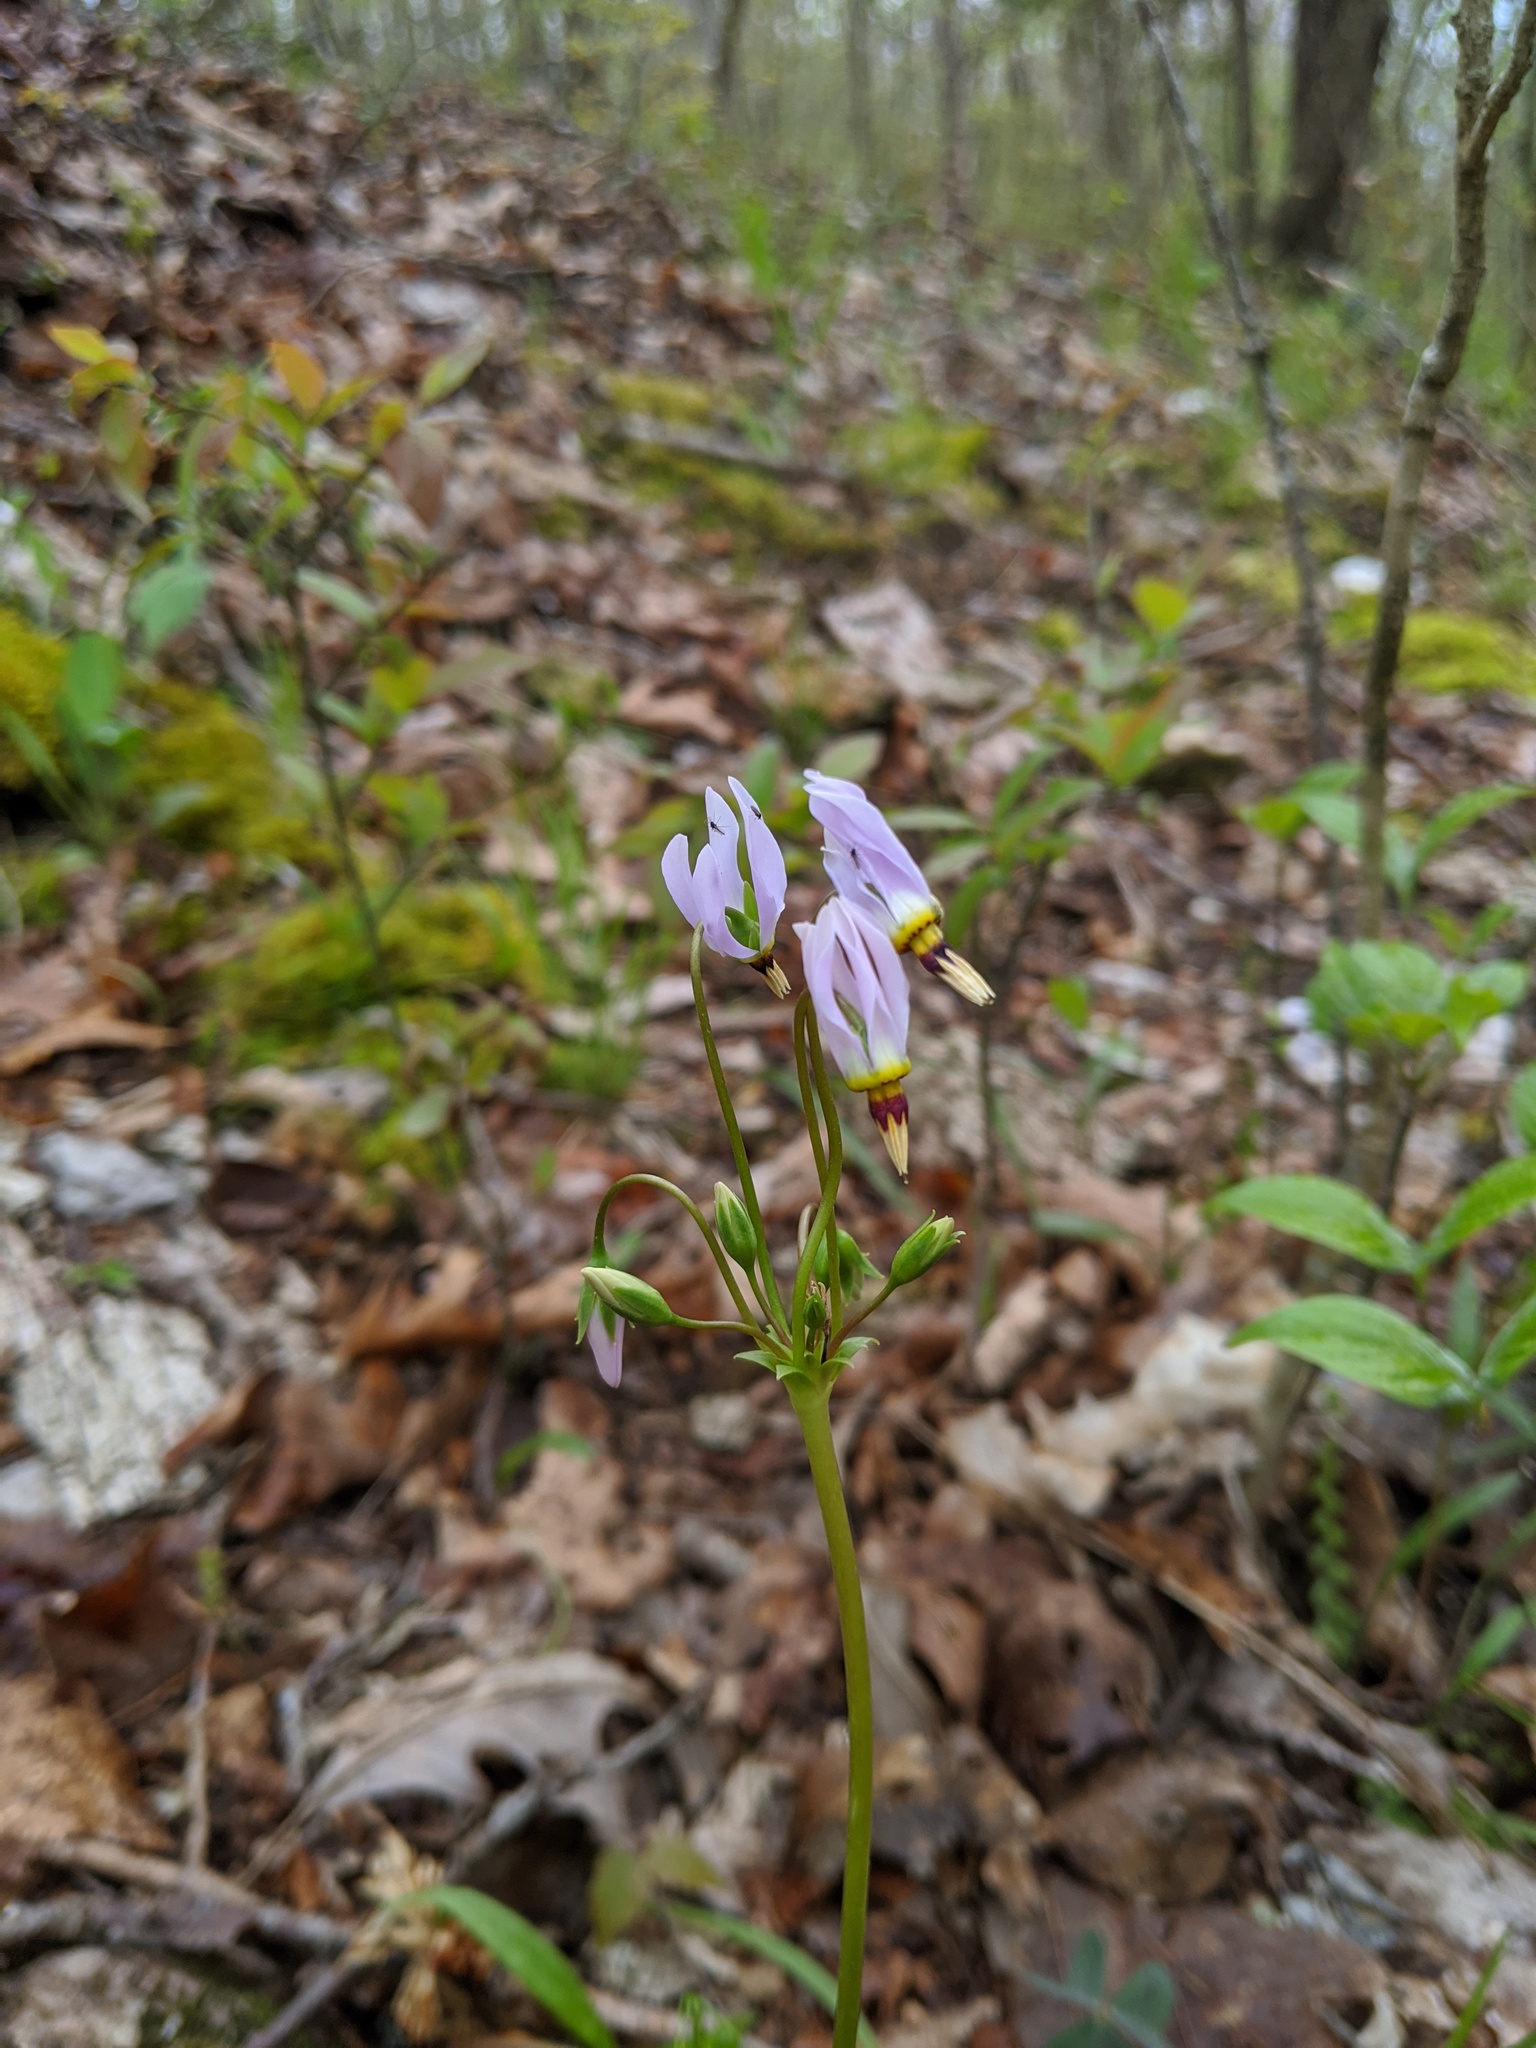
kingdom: Plantae
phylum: Tracheophyta
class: Magnoliopsida
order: Ericales
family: Primulaceae
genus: Dodecatheon
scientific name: Dodecatheon meadia
